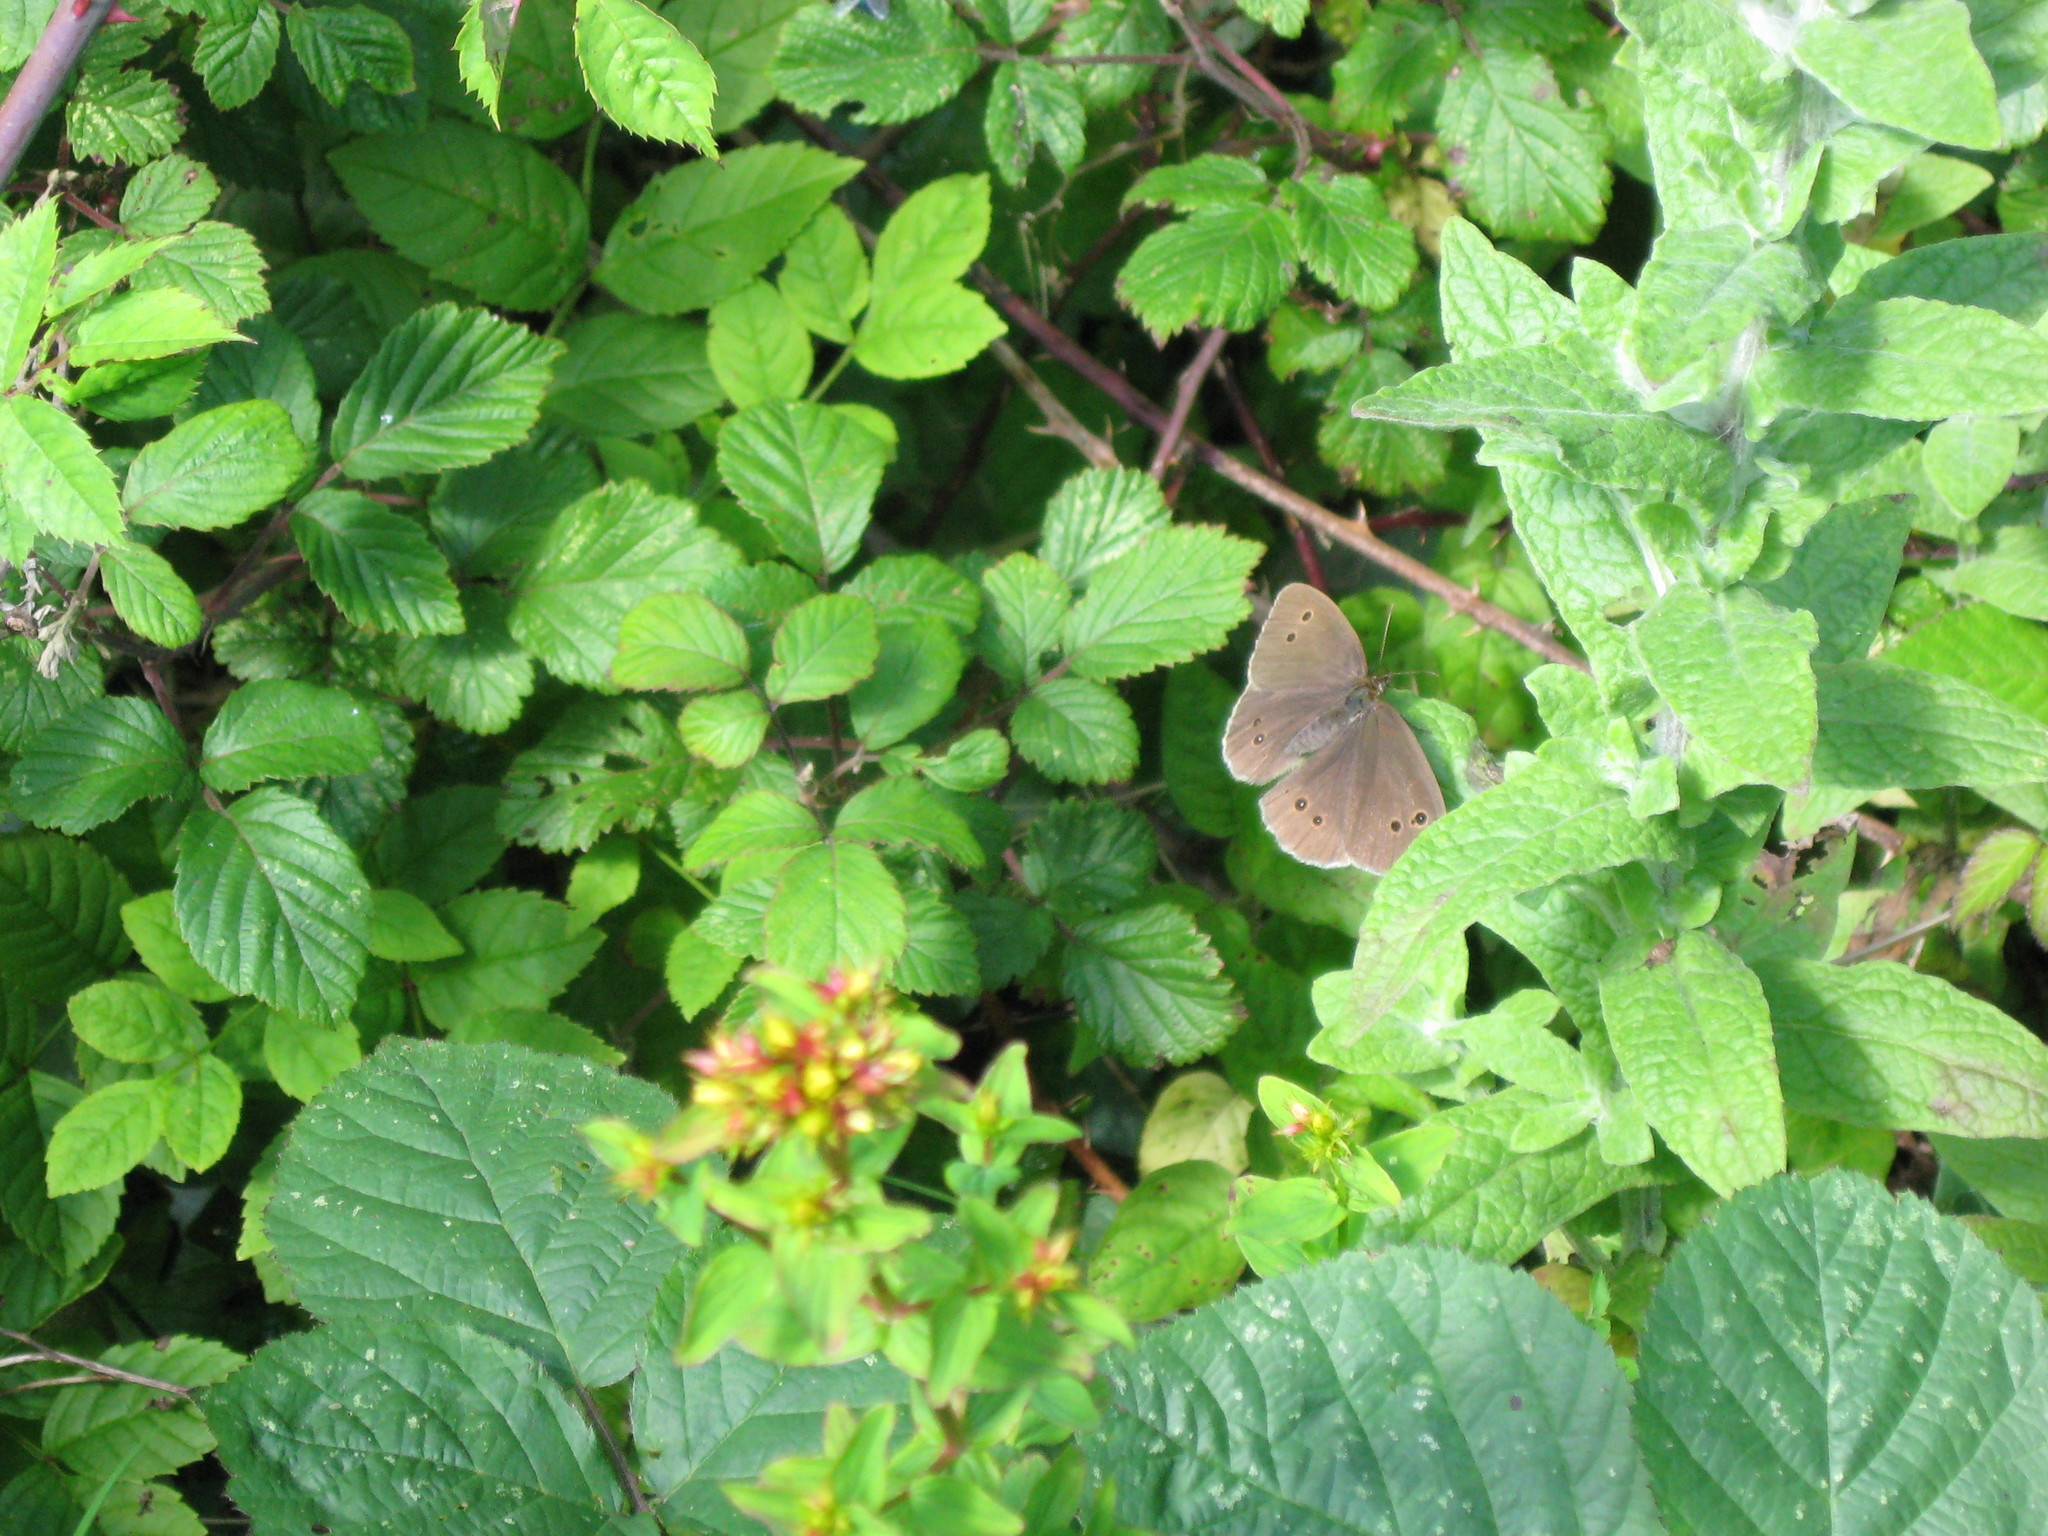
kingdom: Animalia
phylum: Arthropoda
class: Insecta
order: Lepidoptera
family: Nymphalidae
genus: Aphantopus
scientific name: Aphantopus hyperantus
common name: Ringlet
